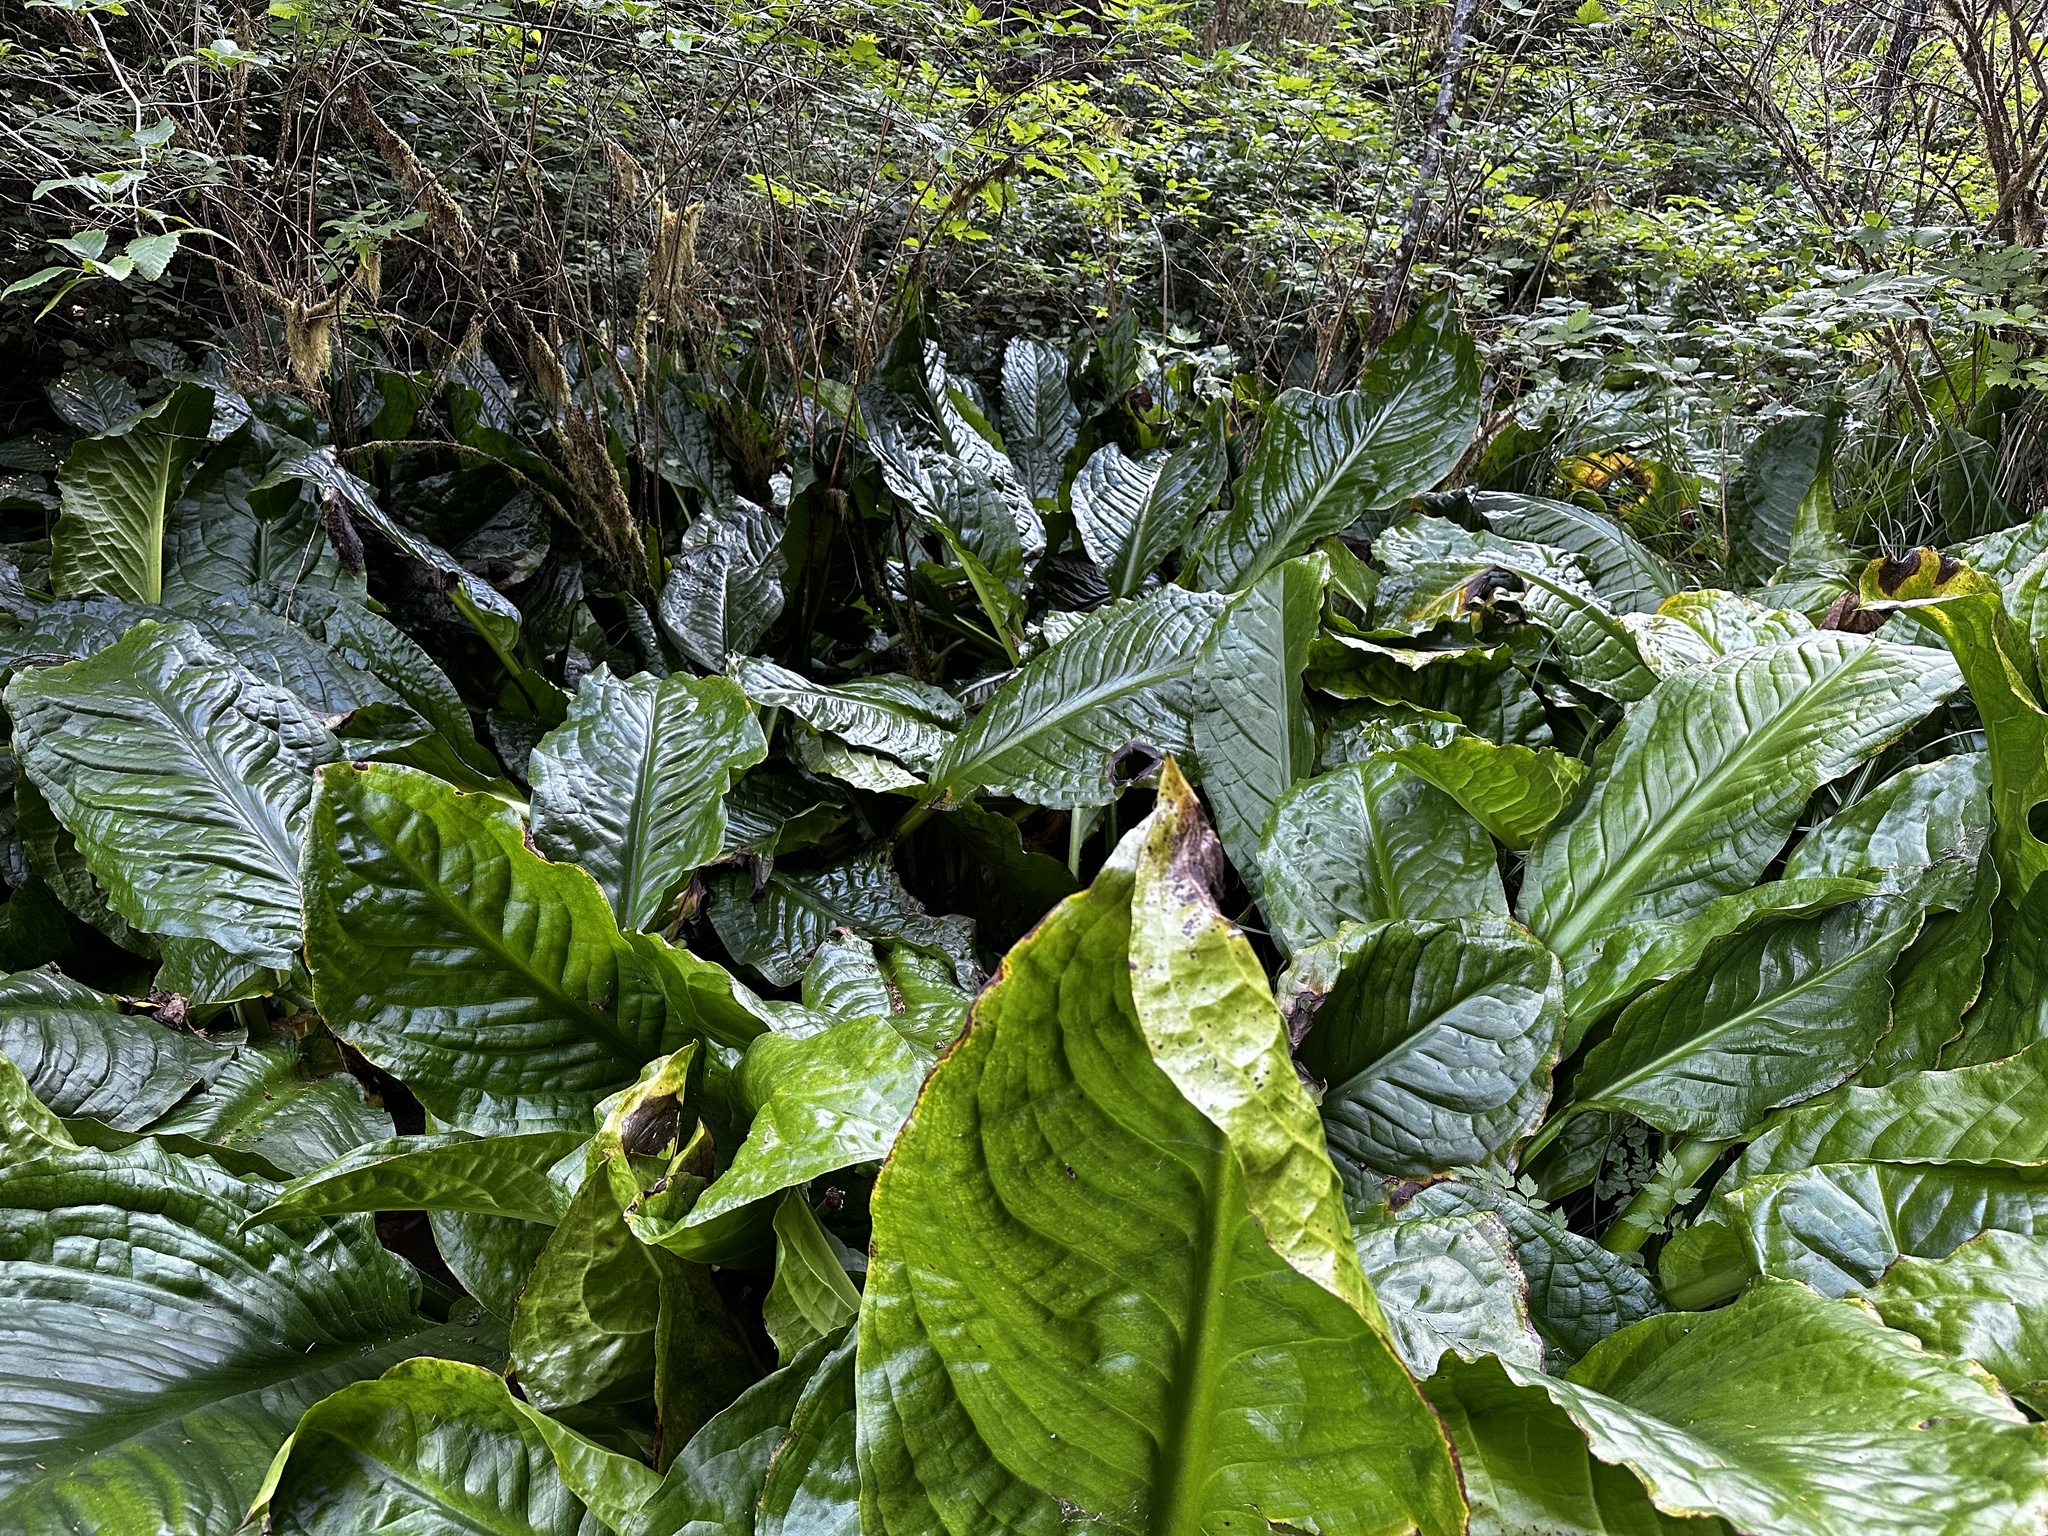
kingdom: Plantae
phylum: Tracheophyta
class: Liliopsida
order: Alismatales
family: Araceae
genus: Lysichiton
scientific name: Lysichiton americanus
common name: American skunk cabbage
